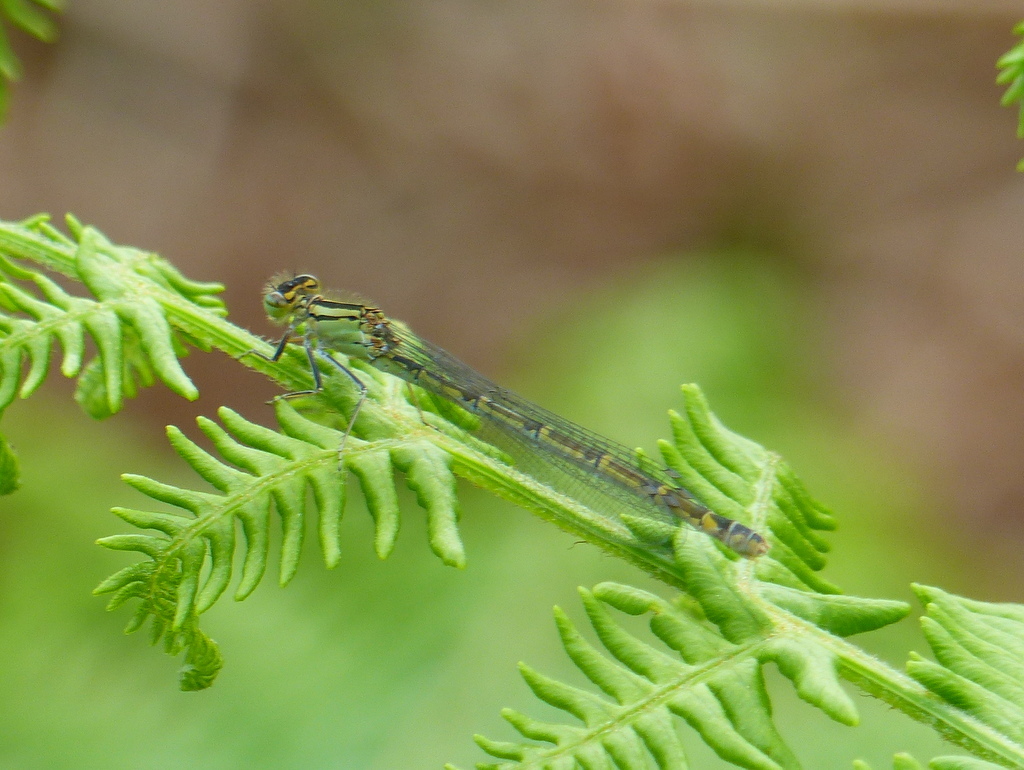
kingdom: Animalia
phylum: Arthropoda
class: Insecta
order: Odonata
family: Coenagrionidae
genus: Enallagma
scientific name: Enallagma cyathigerum
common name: Common blue damselfly
